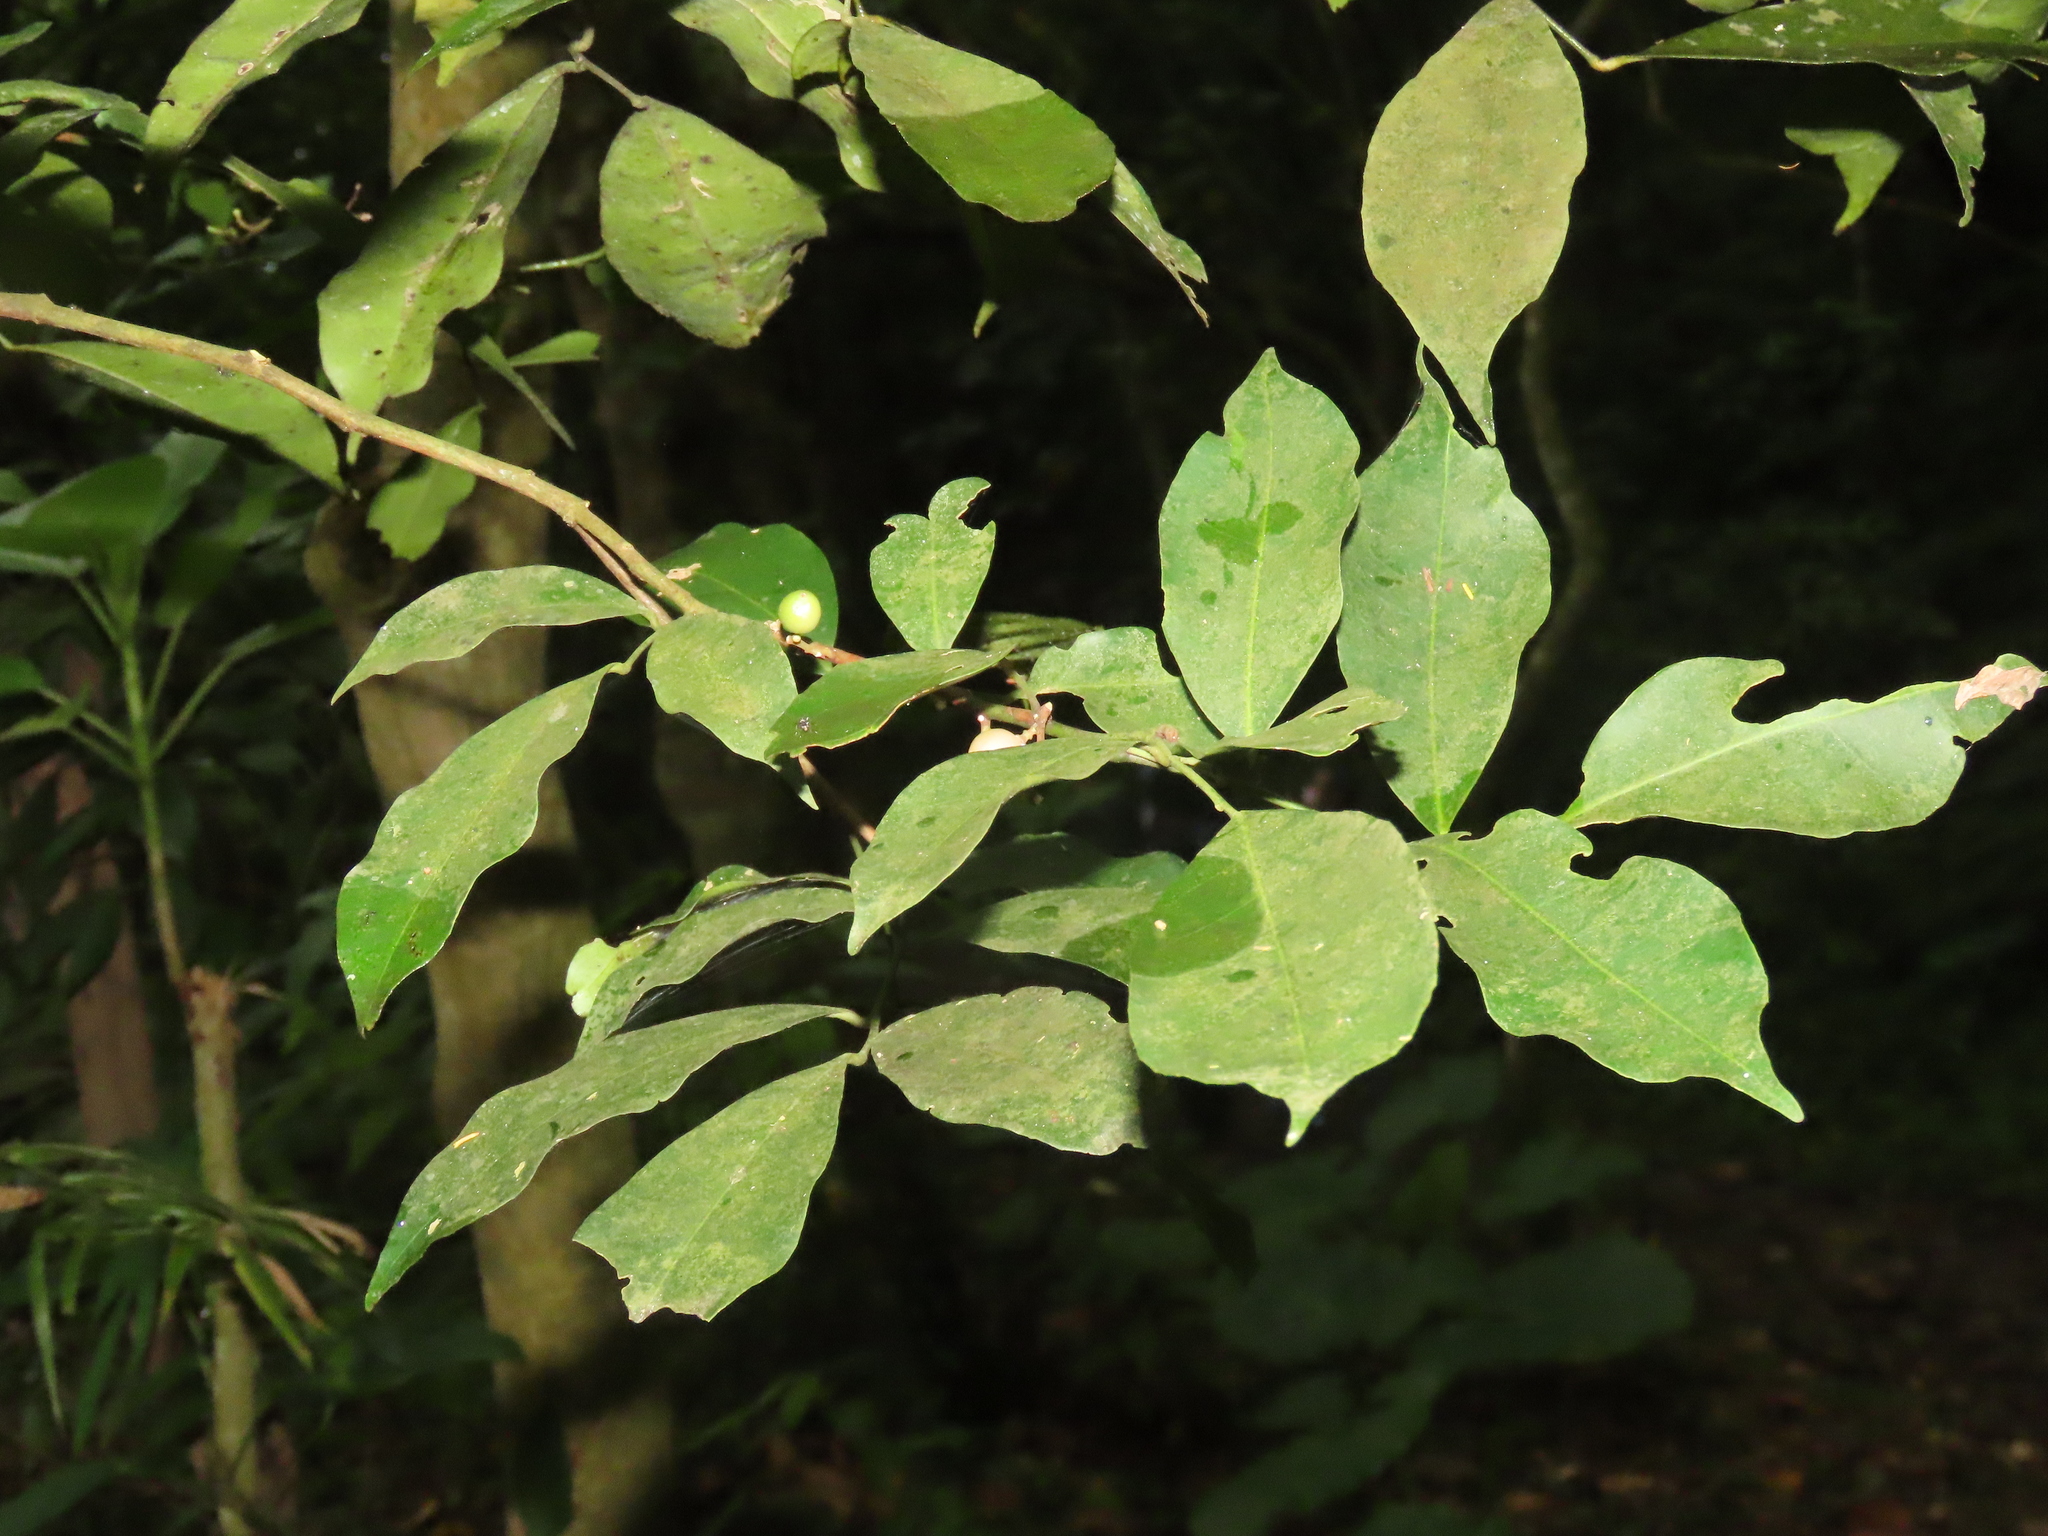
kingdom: Plantae
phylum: Tracheophyta
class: Magnoliopsida
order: Sapindales
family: Rutaceae
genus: Glycosmis
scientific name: Glycosmis parviflora
